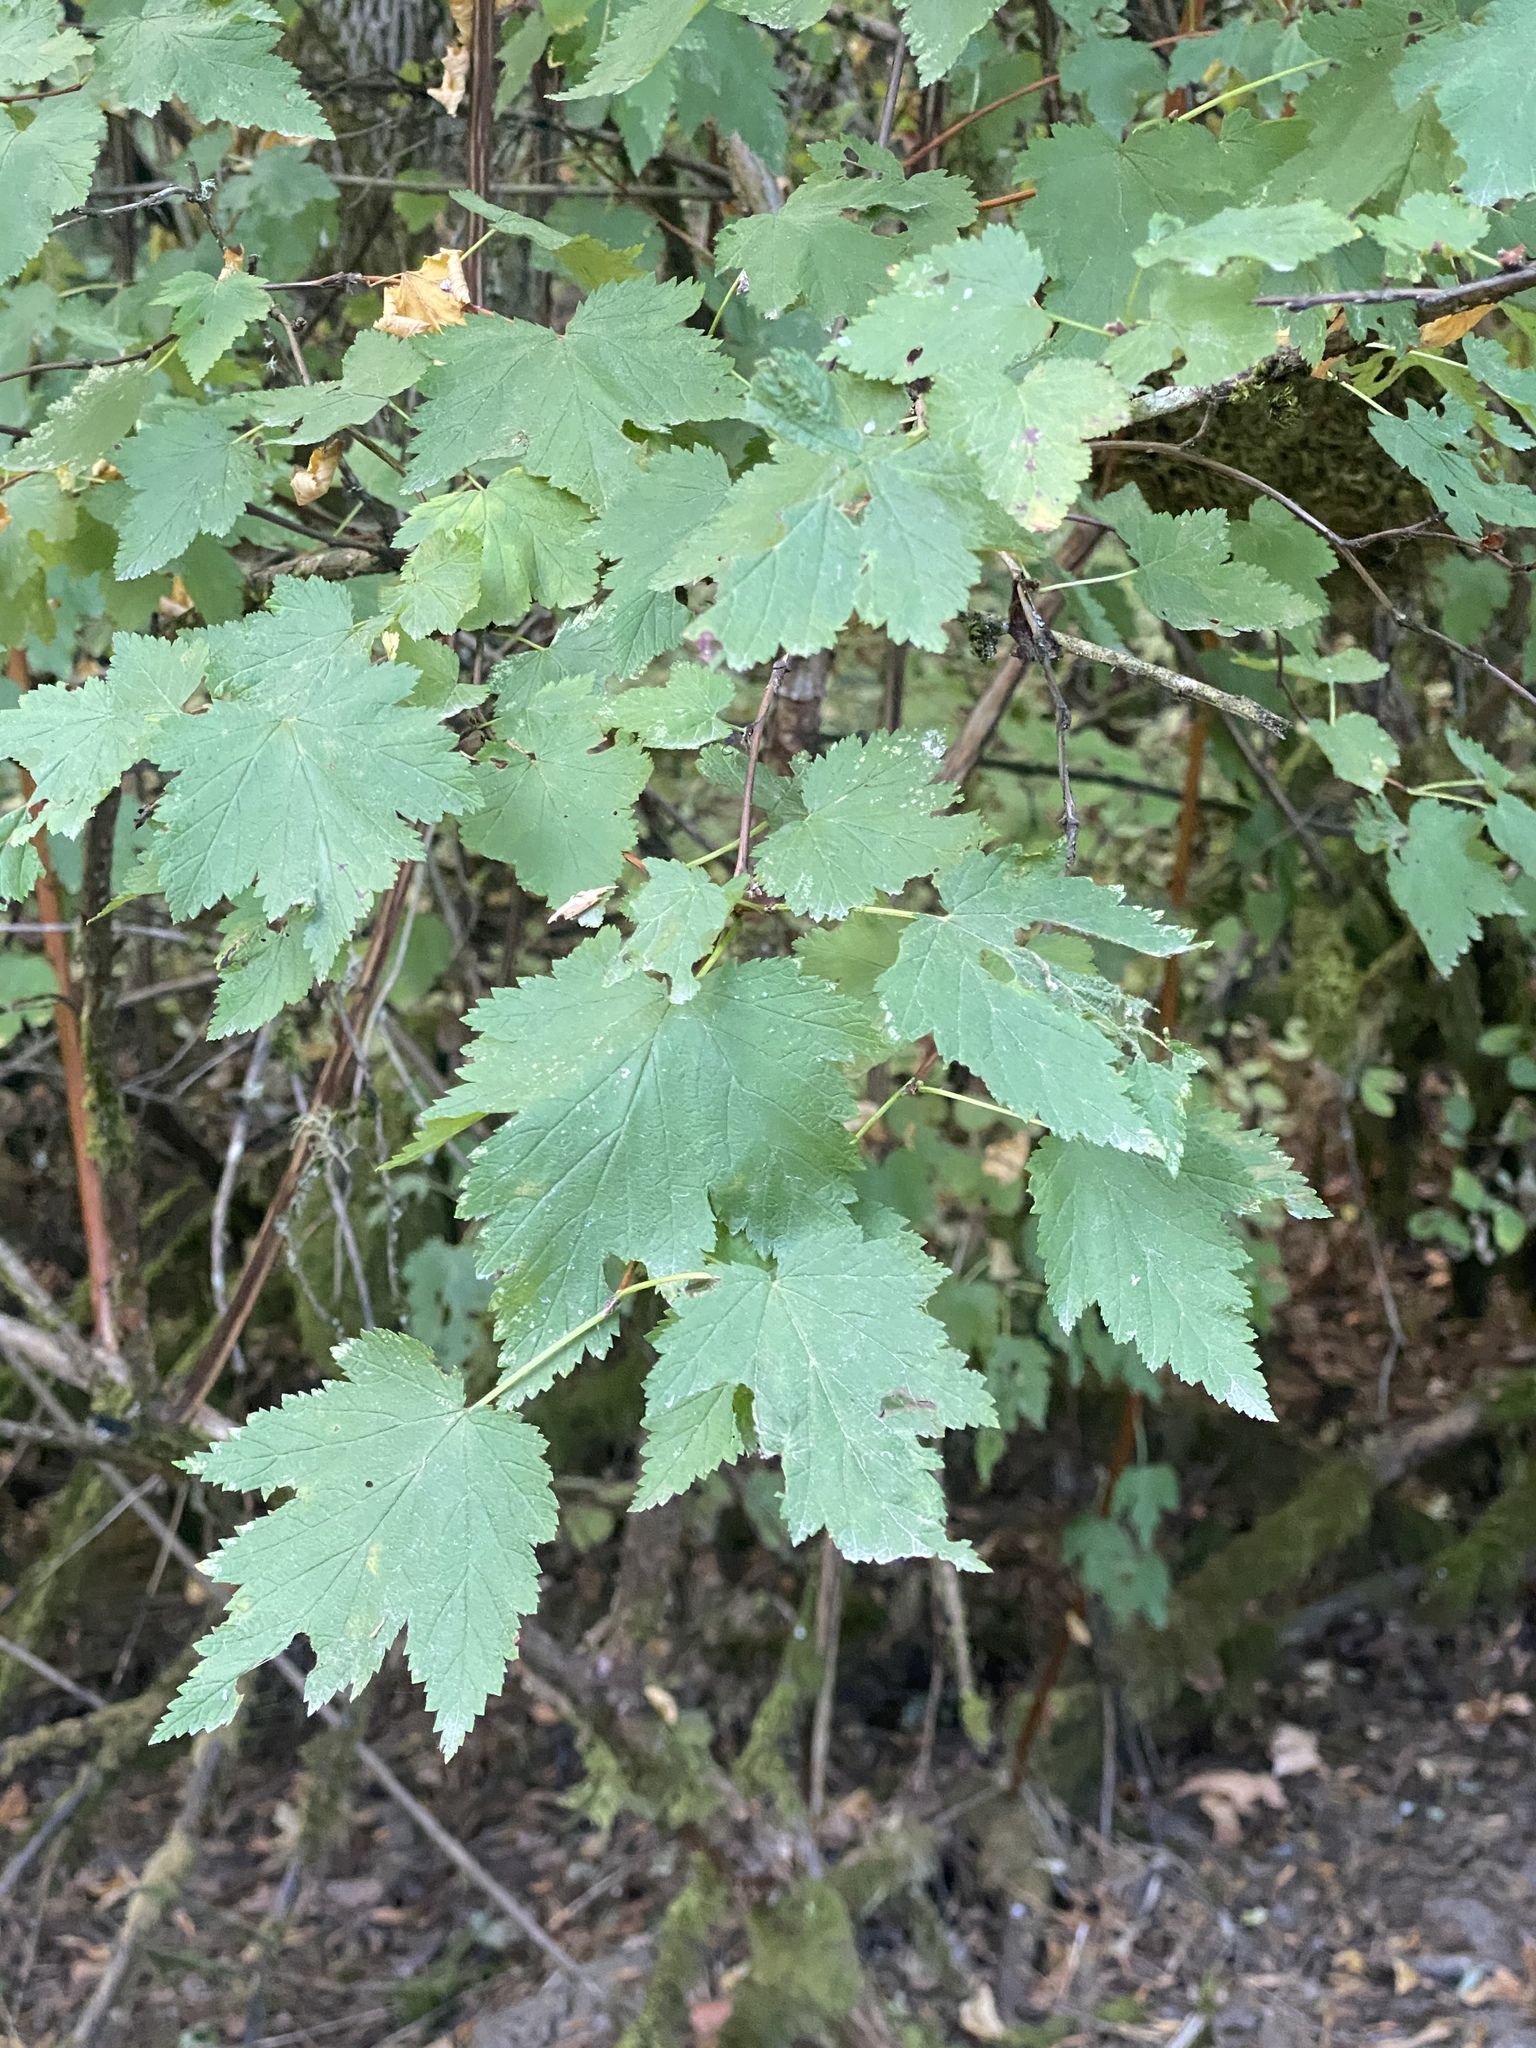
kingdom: Plantae
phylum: Tracheophyta
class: Magnoliopsida
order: Rosales
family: Rosaceae
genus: Physocarpus
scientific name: Physocarpus capitatus
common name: Pacific ninebark
